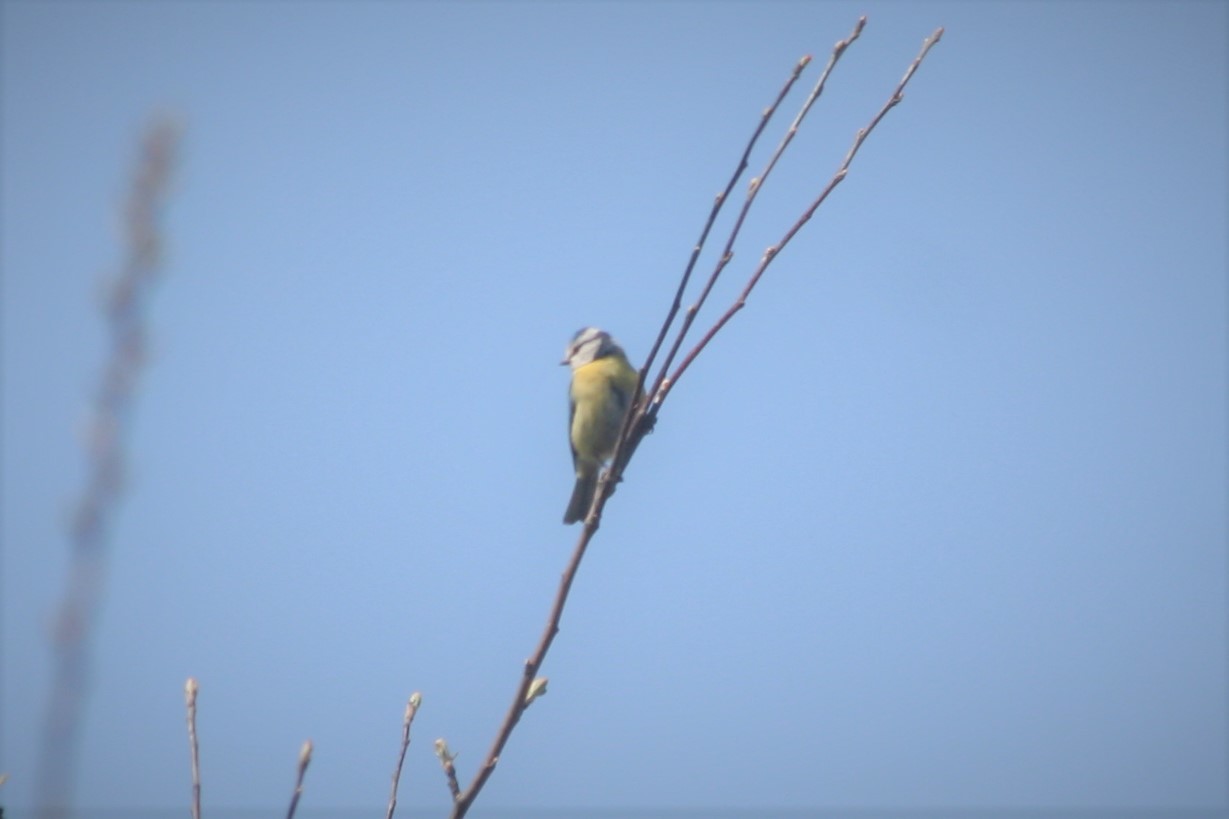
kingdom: Animalia
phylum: Chordata
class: Aves
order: Passeriformes
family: Paridae
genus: Cyanistes
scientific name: Cyanistes caeruleus
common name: Eurasian blue tit
